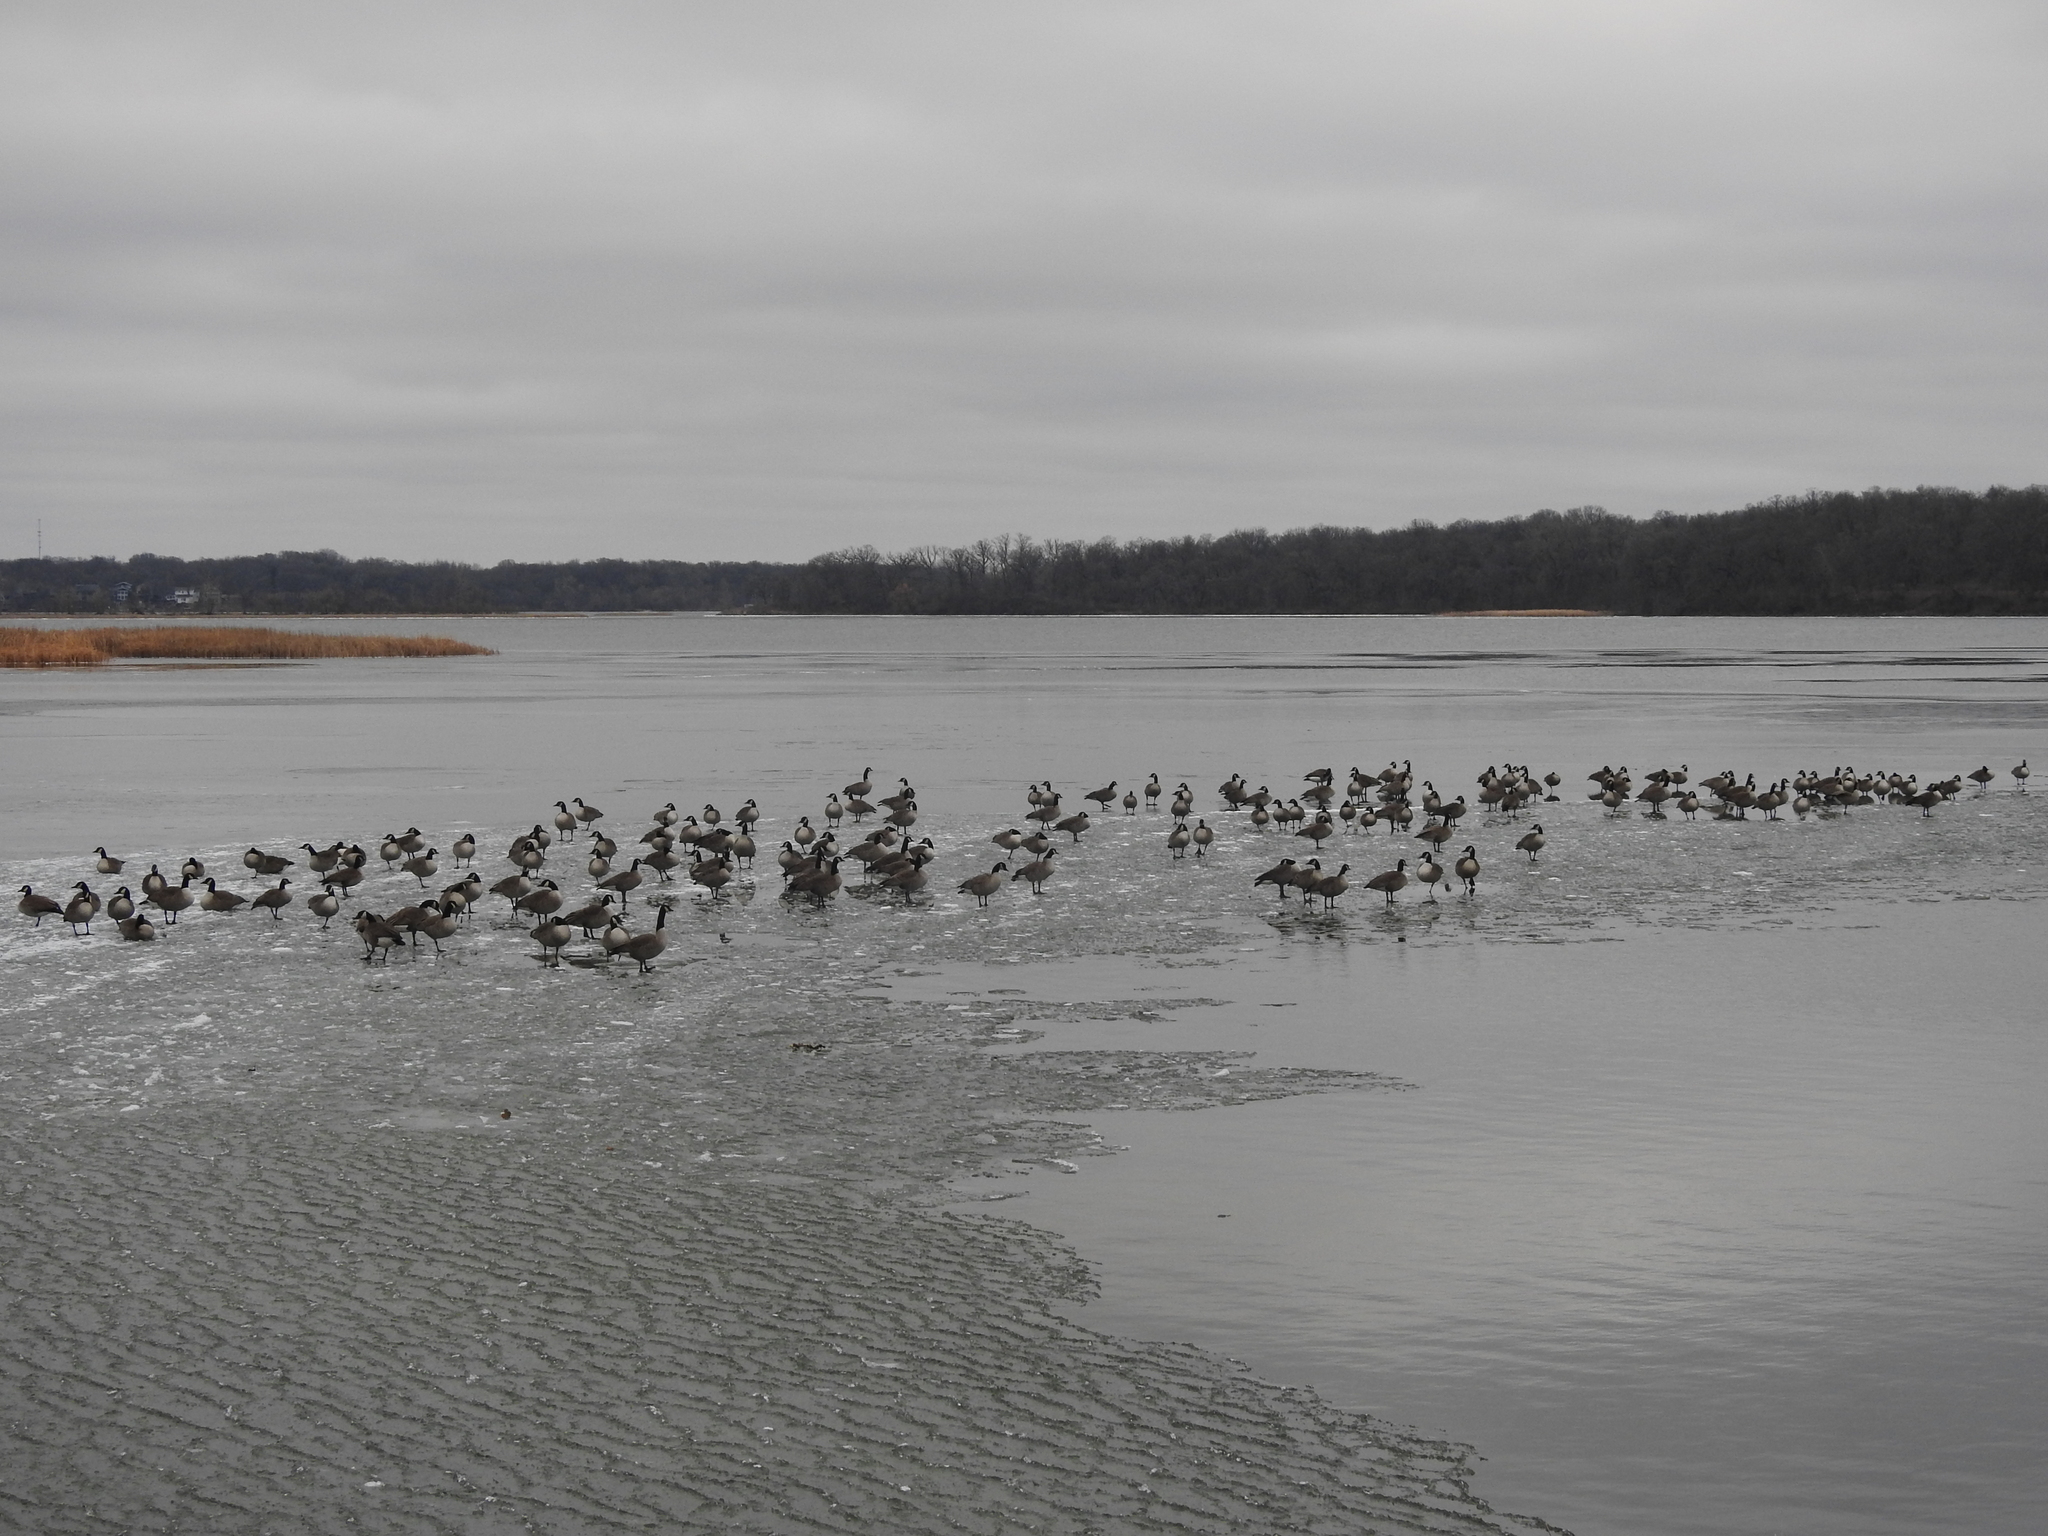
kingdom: Animalia
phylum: Chordata
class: Aves
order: Anseriformes
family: Anatidae
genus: Branta
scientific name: Branta canadensis
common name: Canada goose
